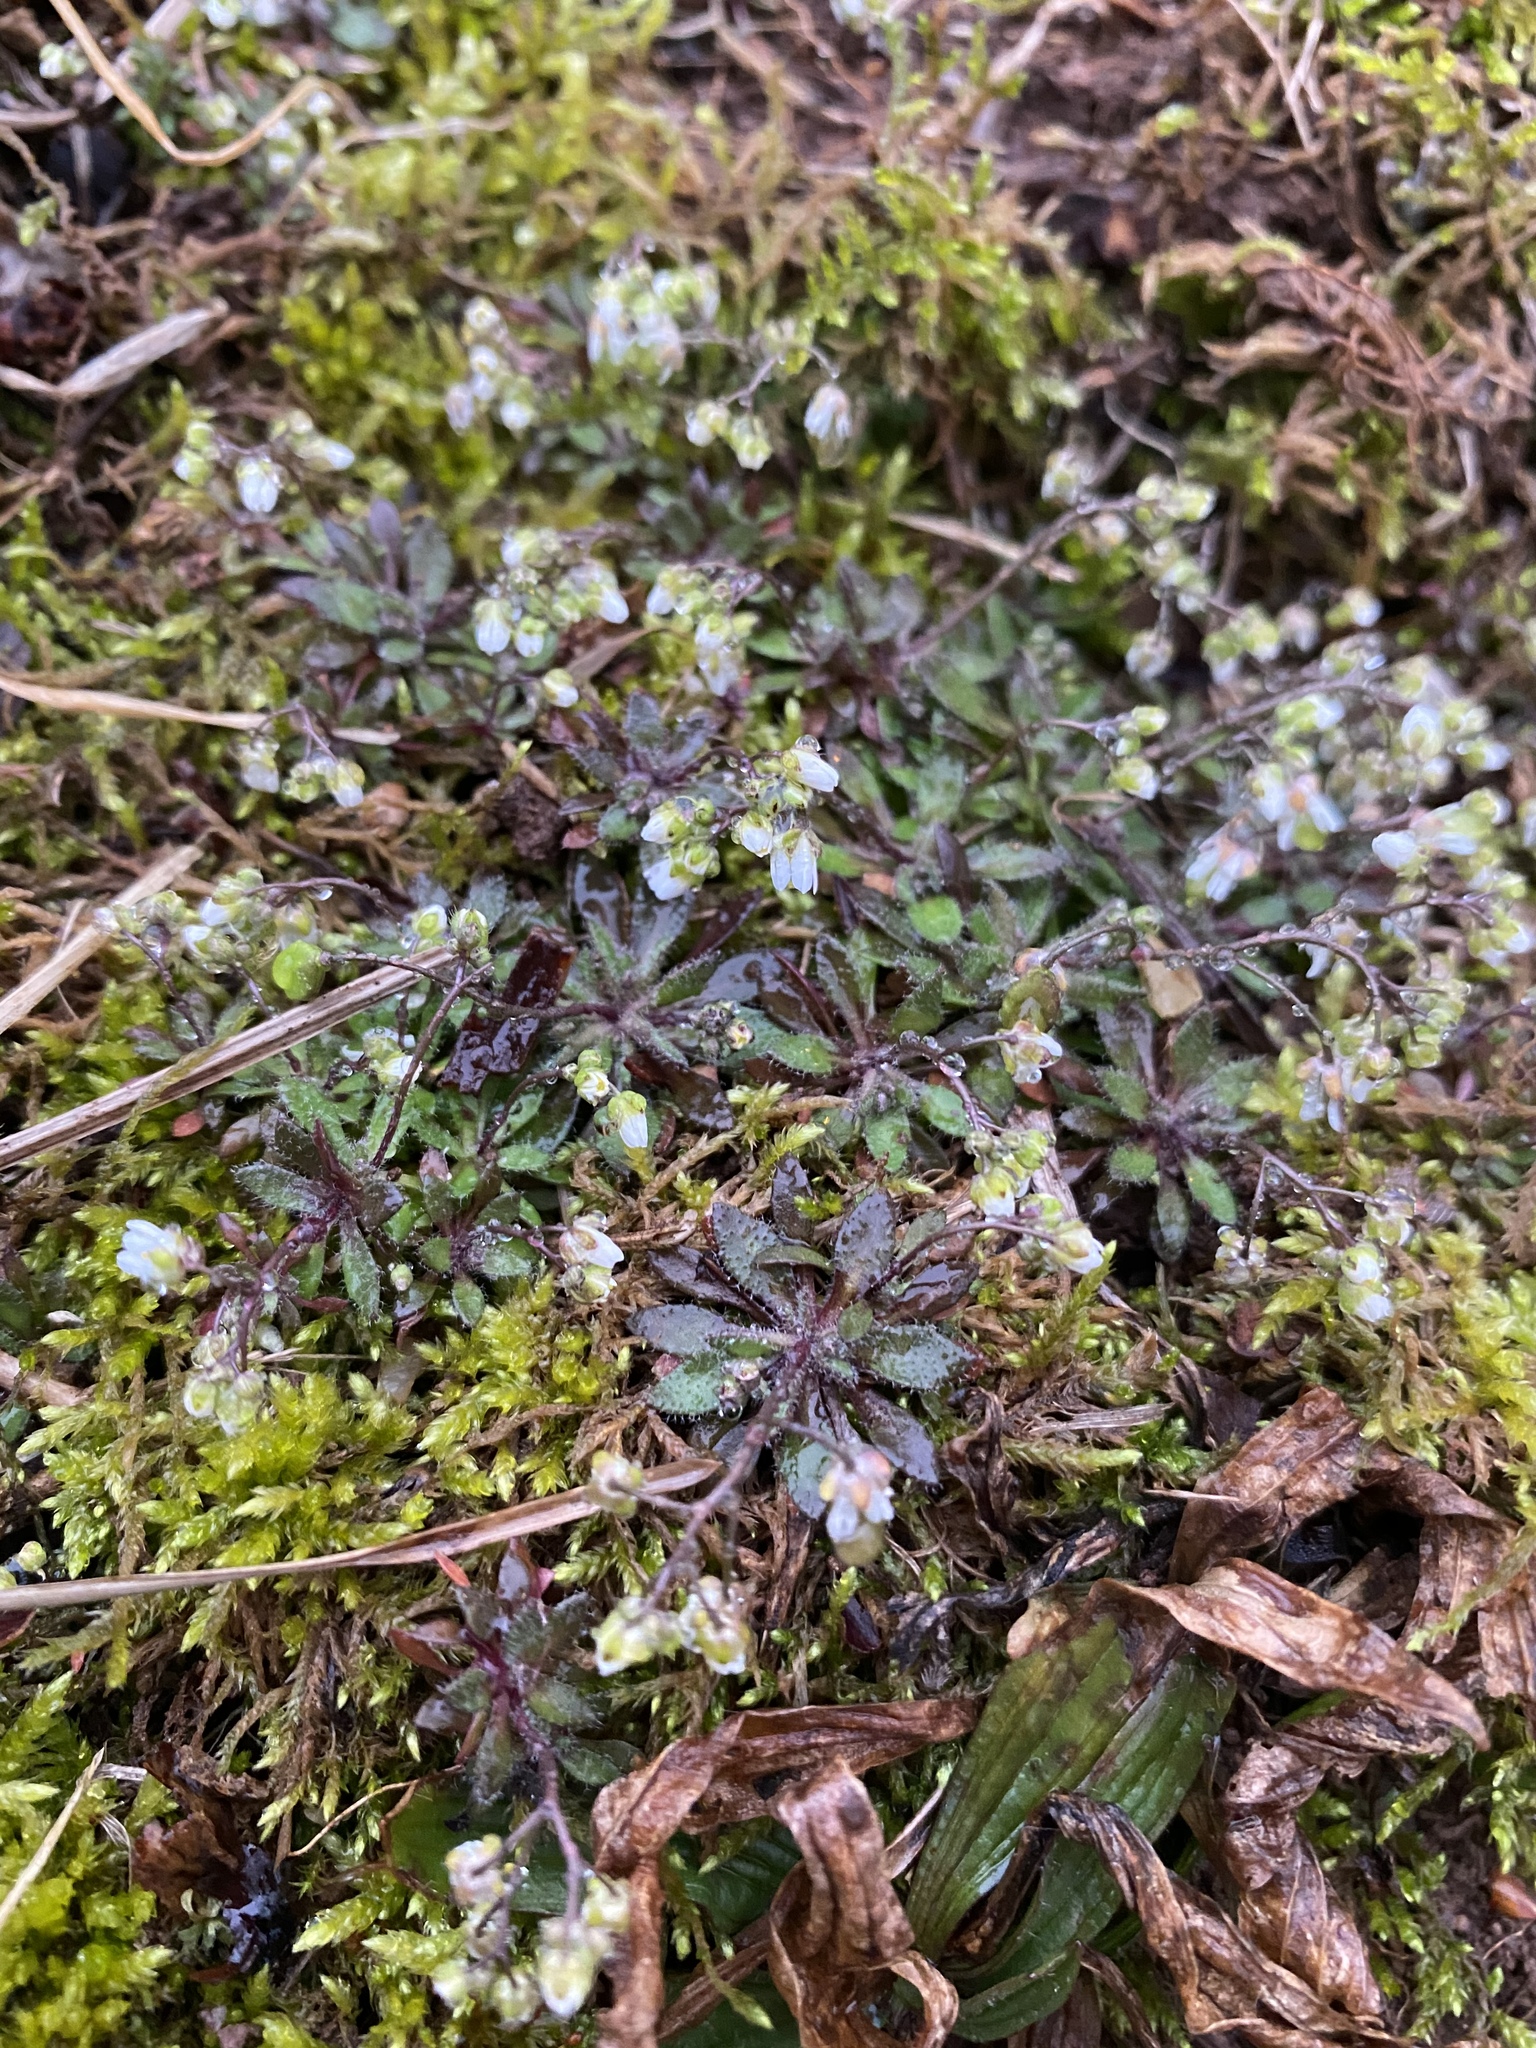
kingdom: Plantae
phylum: Tracheophyta
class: Magnoliopsida
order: Brassicales
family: Brassicaceae
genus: Draba
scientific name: Draba verna
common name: Spring draba
